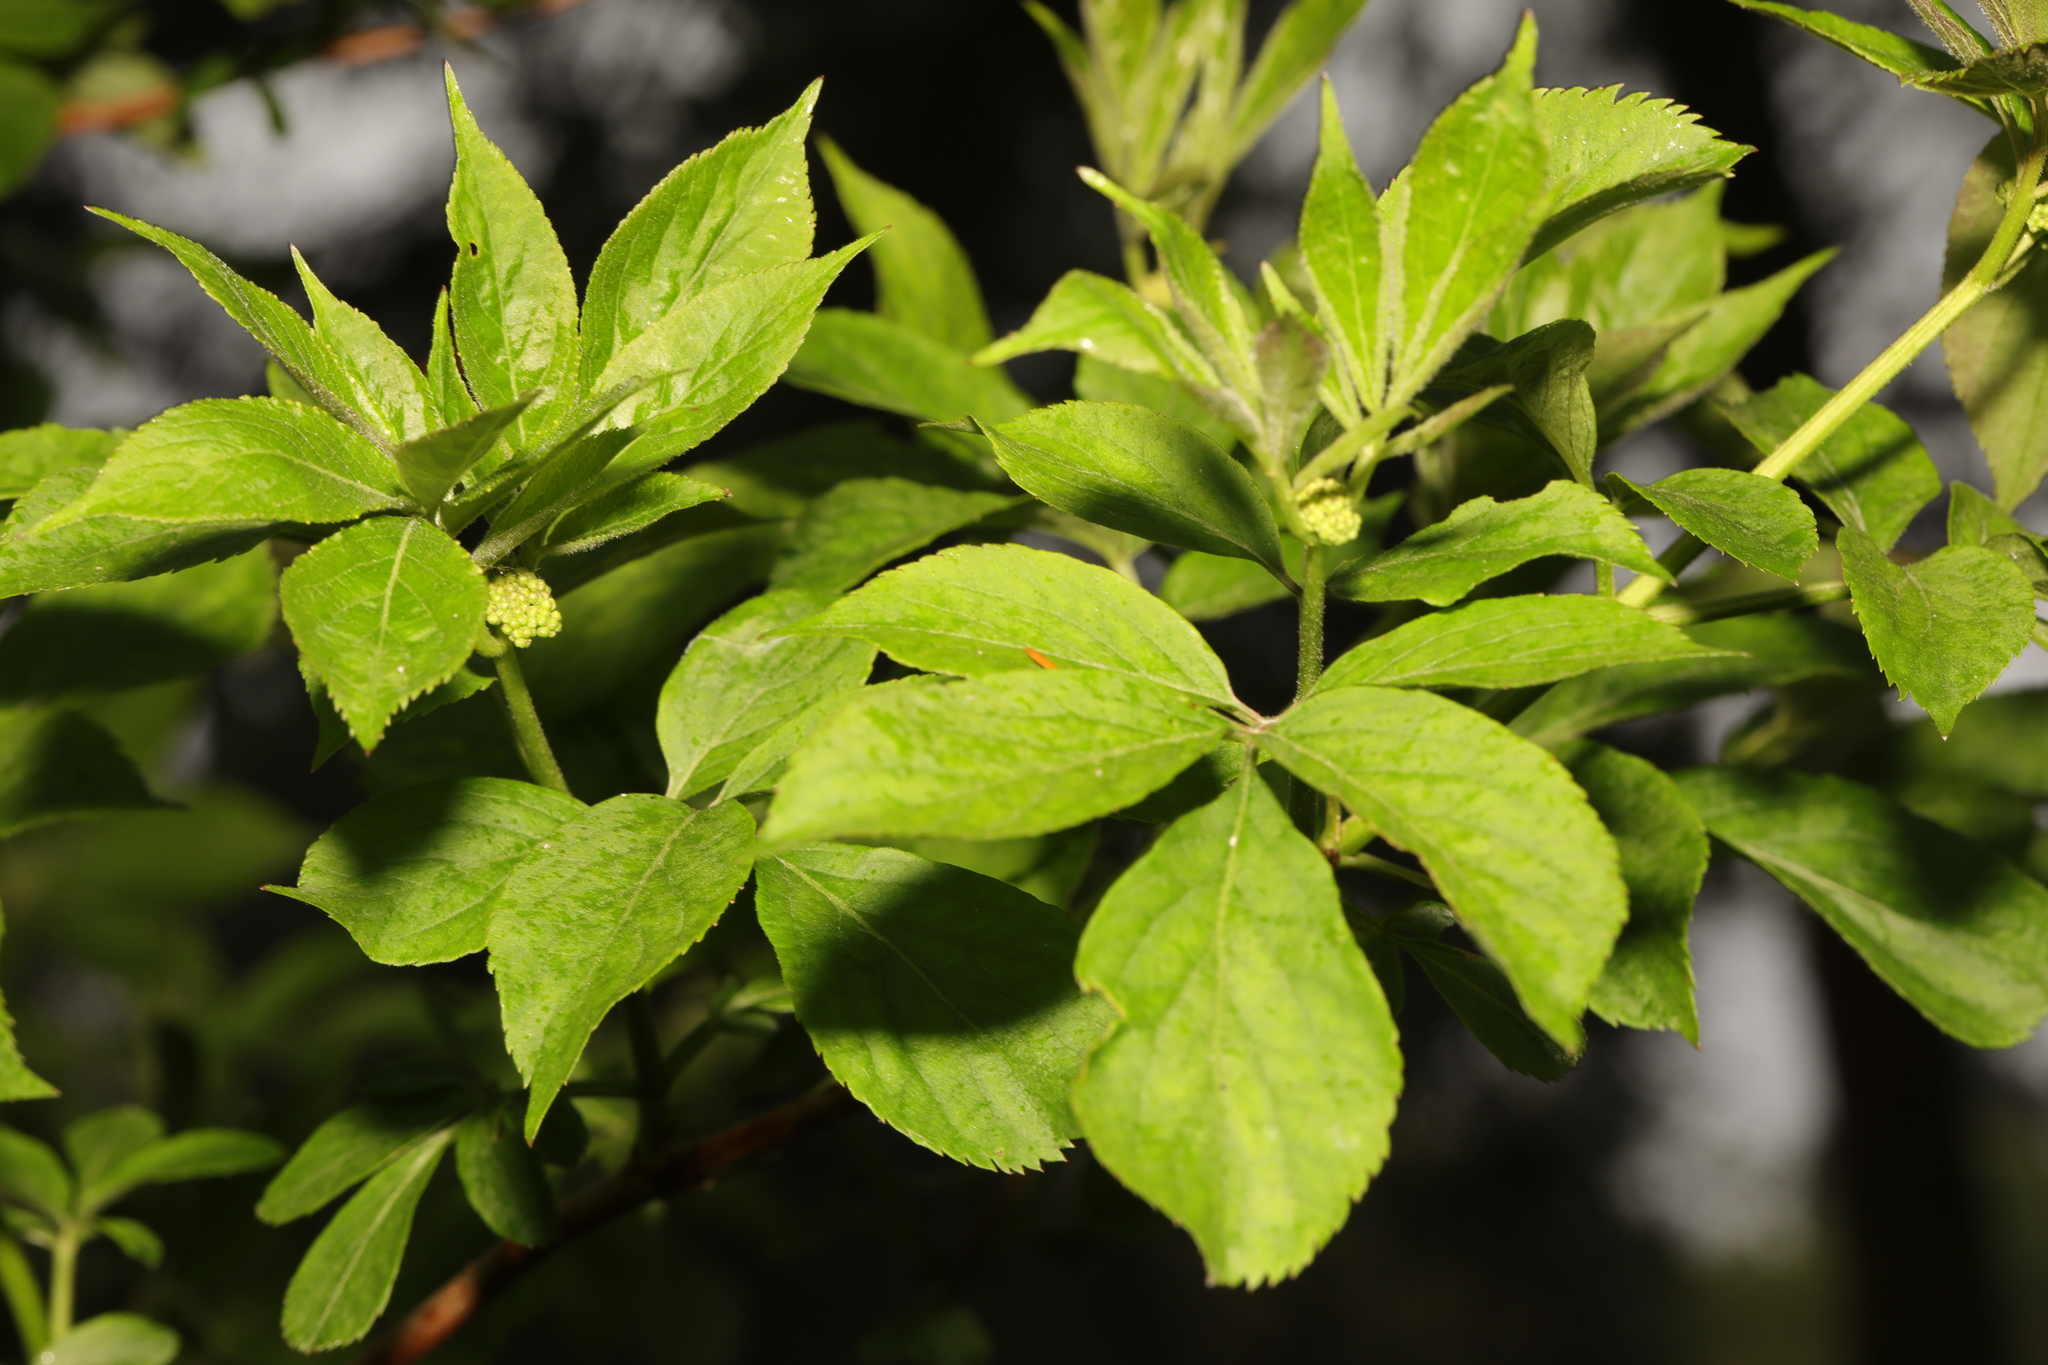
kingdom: Plantae
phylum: Tracheophyta
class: Magnoliopsida
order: Dipsacales
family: Viburnaceae
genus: Sambucus
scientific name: Sambucus nigra
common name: Elder
